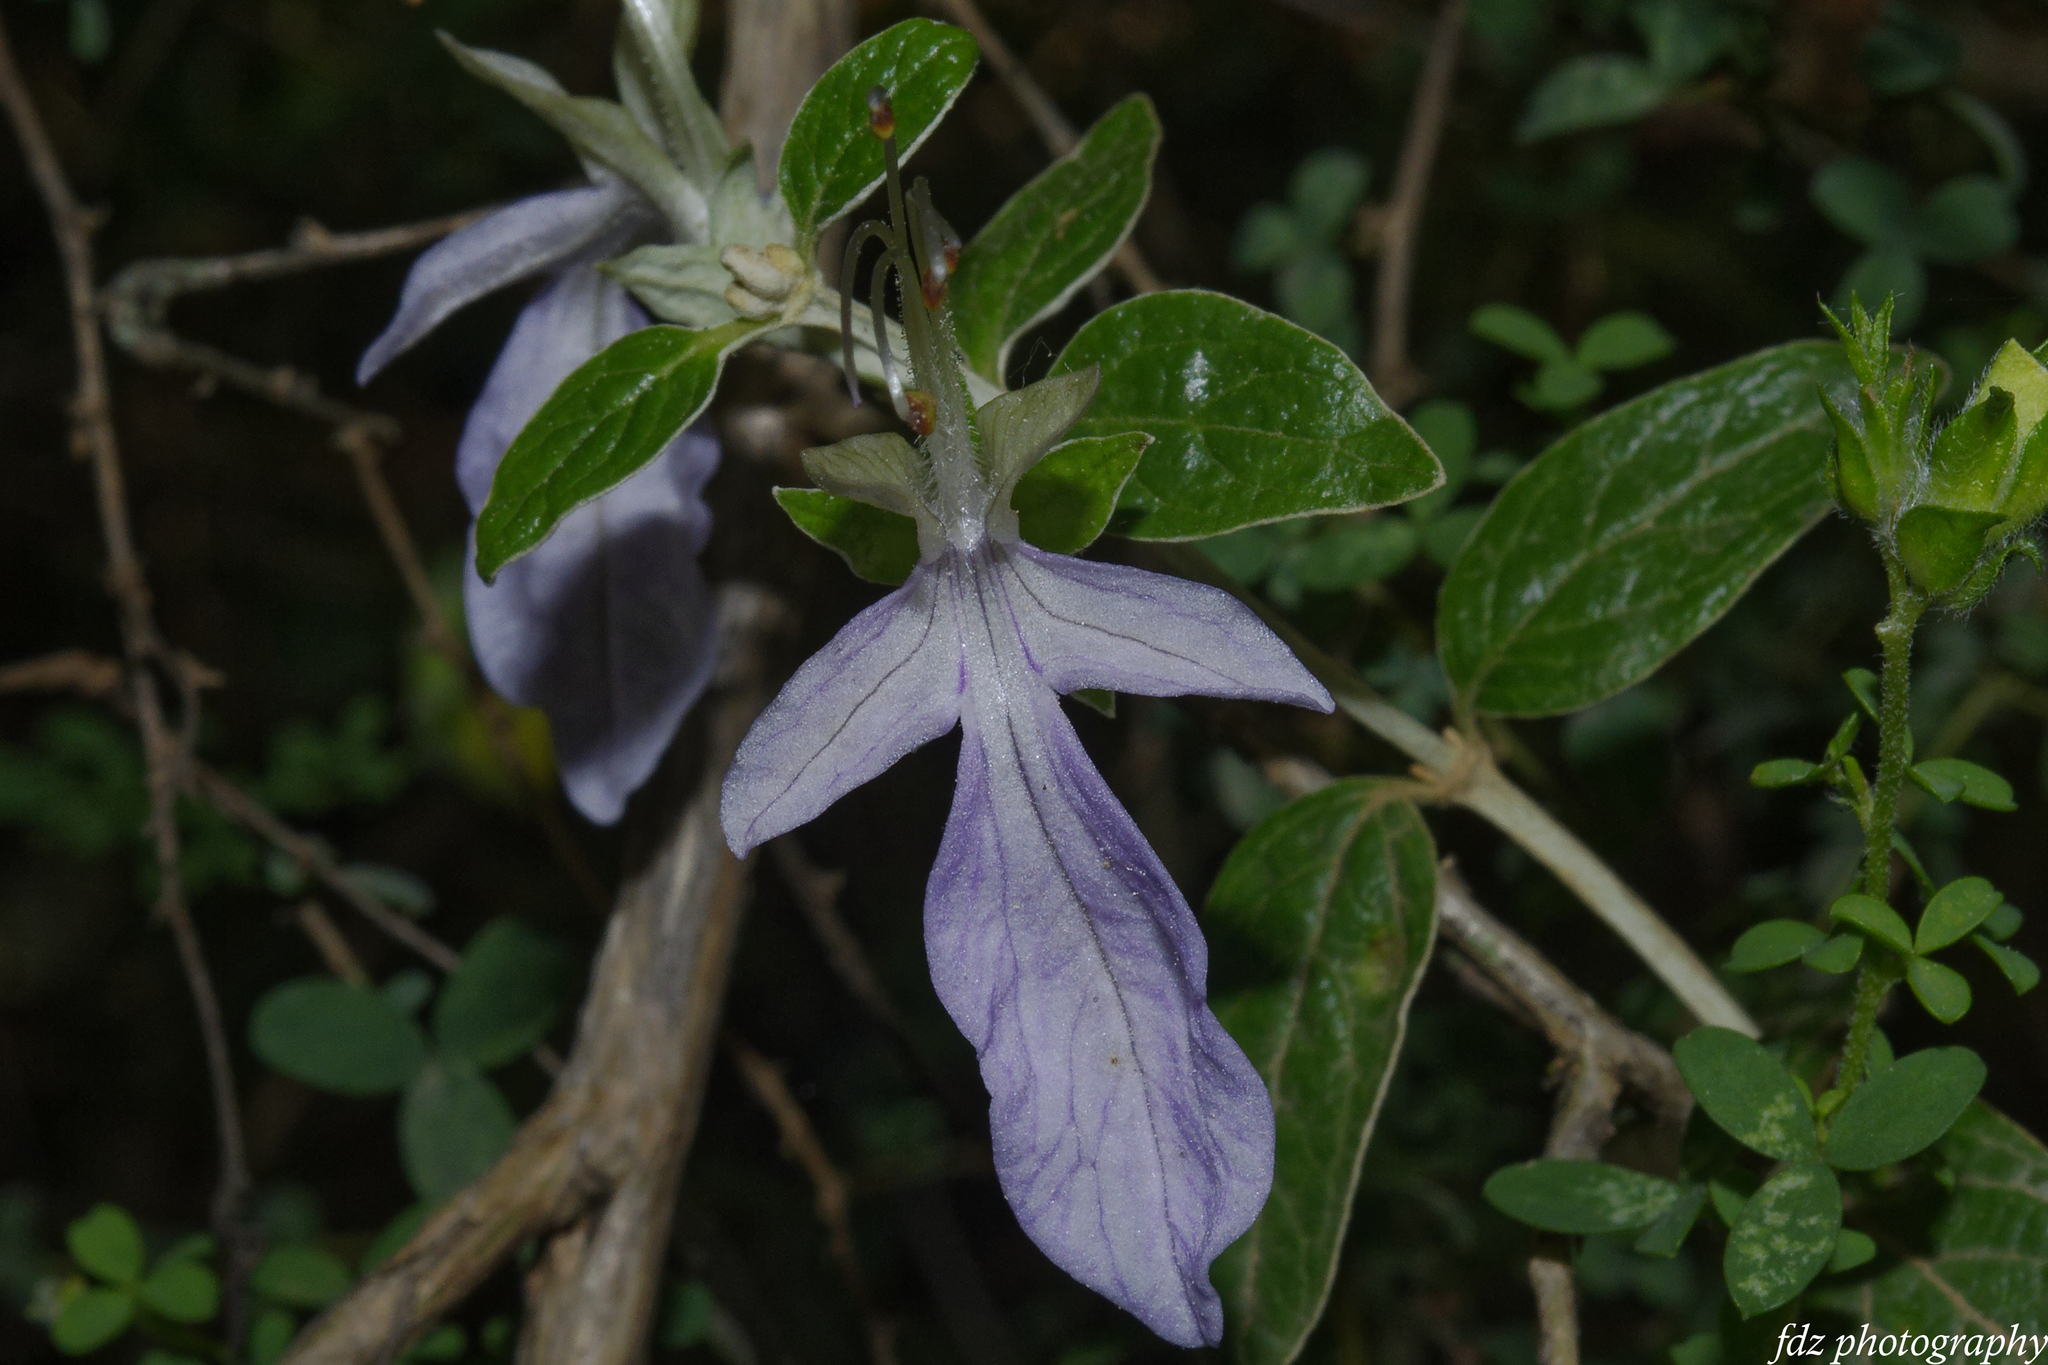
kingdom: Plantae
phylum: Tracheophyta
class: Magnoliopsida
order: Lamiales
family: Lamiaceae
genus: Teucrium
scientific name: Teucrium fruticans
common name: Shrubby germander
